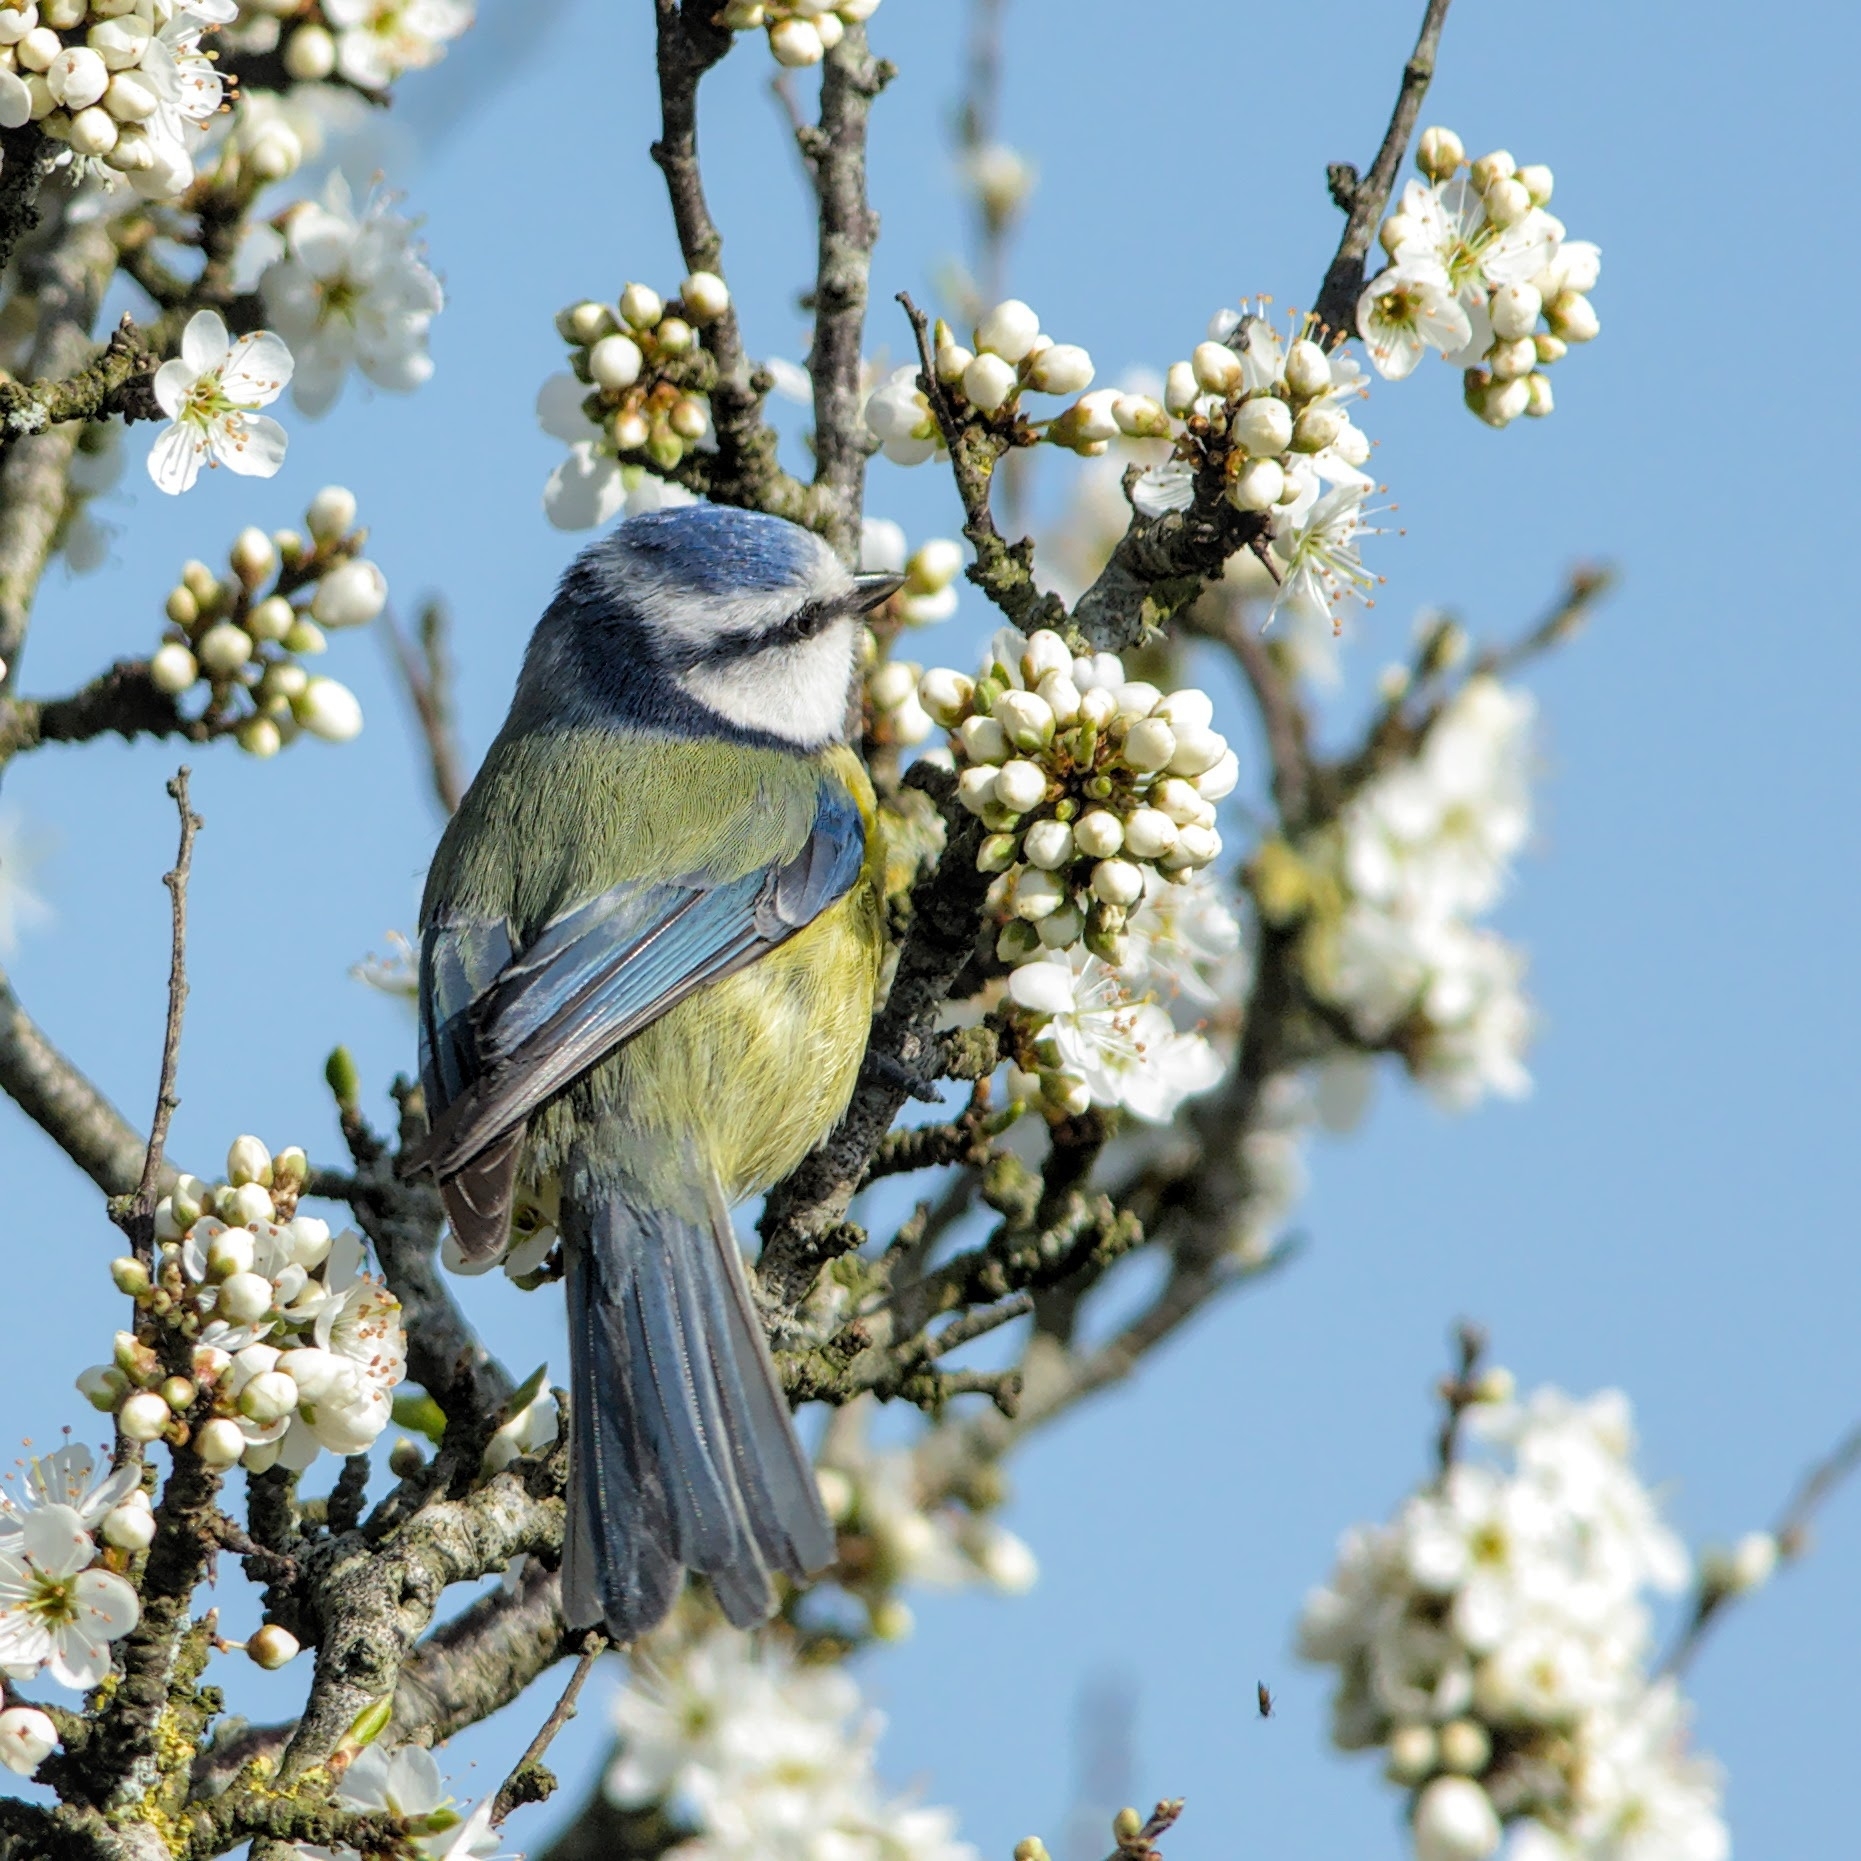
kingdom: Animalia
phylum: Chordata
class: Aves
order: Passeriformes
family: Paridae
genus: Cyanistes
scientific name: Cyanistes caeruleus
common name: Eurasian blue tit
